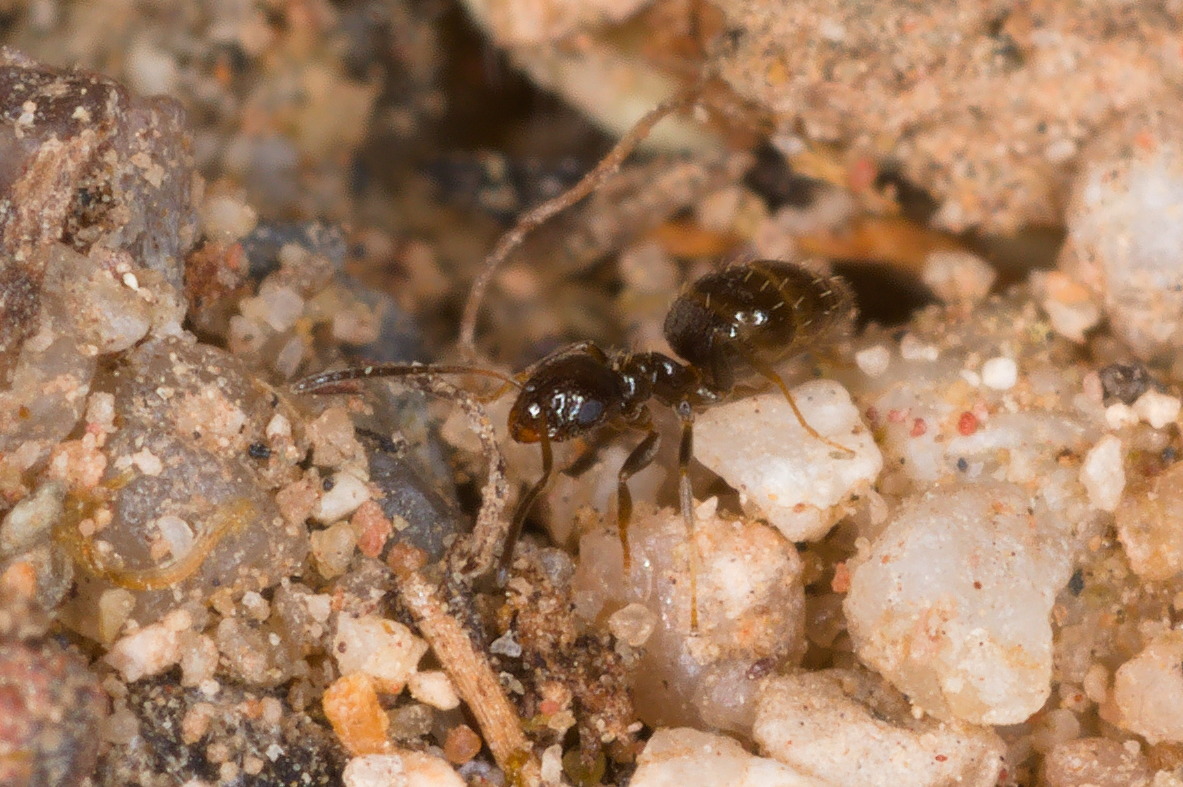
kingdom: Animalia
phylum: Arthropoda
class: Insecta
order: Hymenoptera
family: Formicidae
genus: Brachymyrmex
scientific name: Brachymyrmex patagonicus
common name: Dark rover ant
